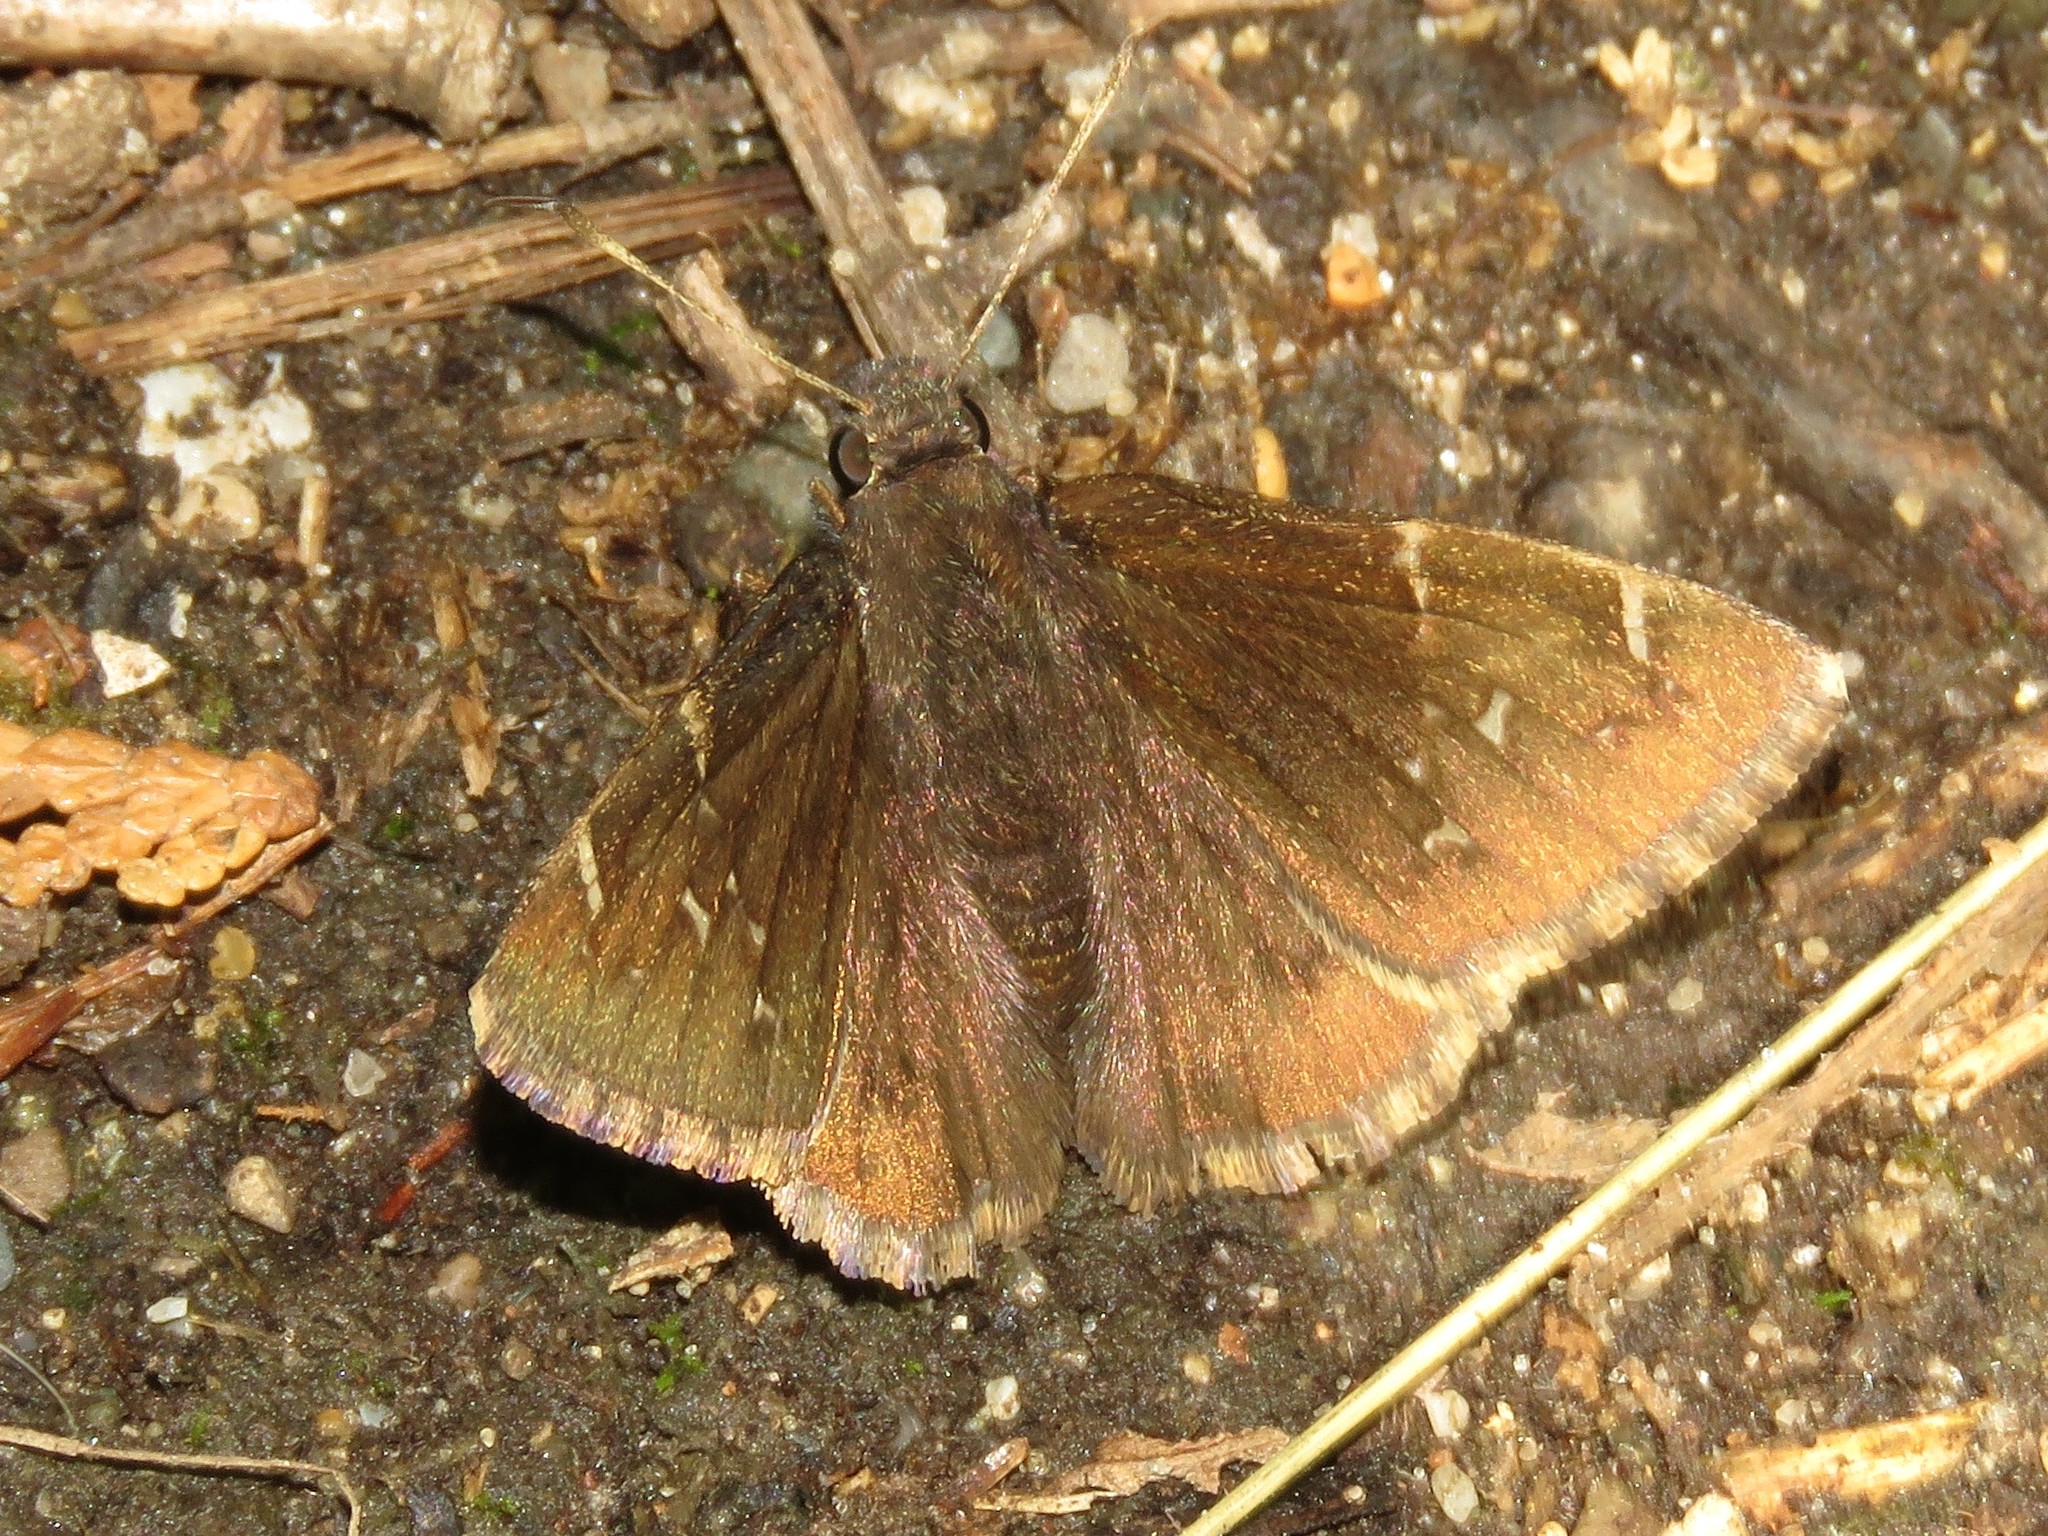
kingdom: Animalia
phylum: Arthropoda
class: Insecta
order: Lepidoptera
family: Hesperiidae
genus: Thorybes
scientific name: Thorybes pylades
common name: Northern cloudywing
